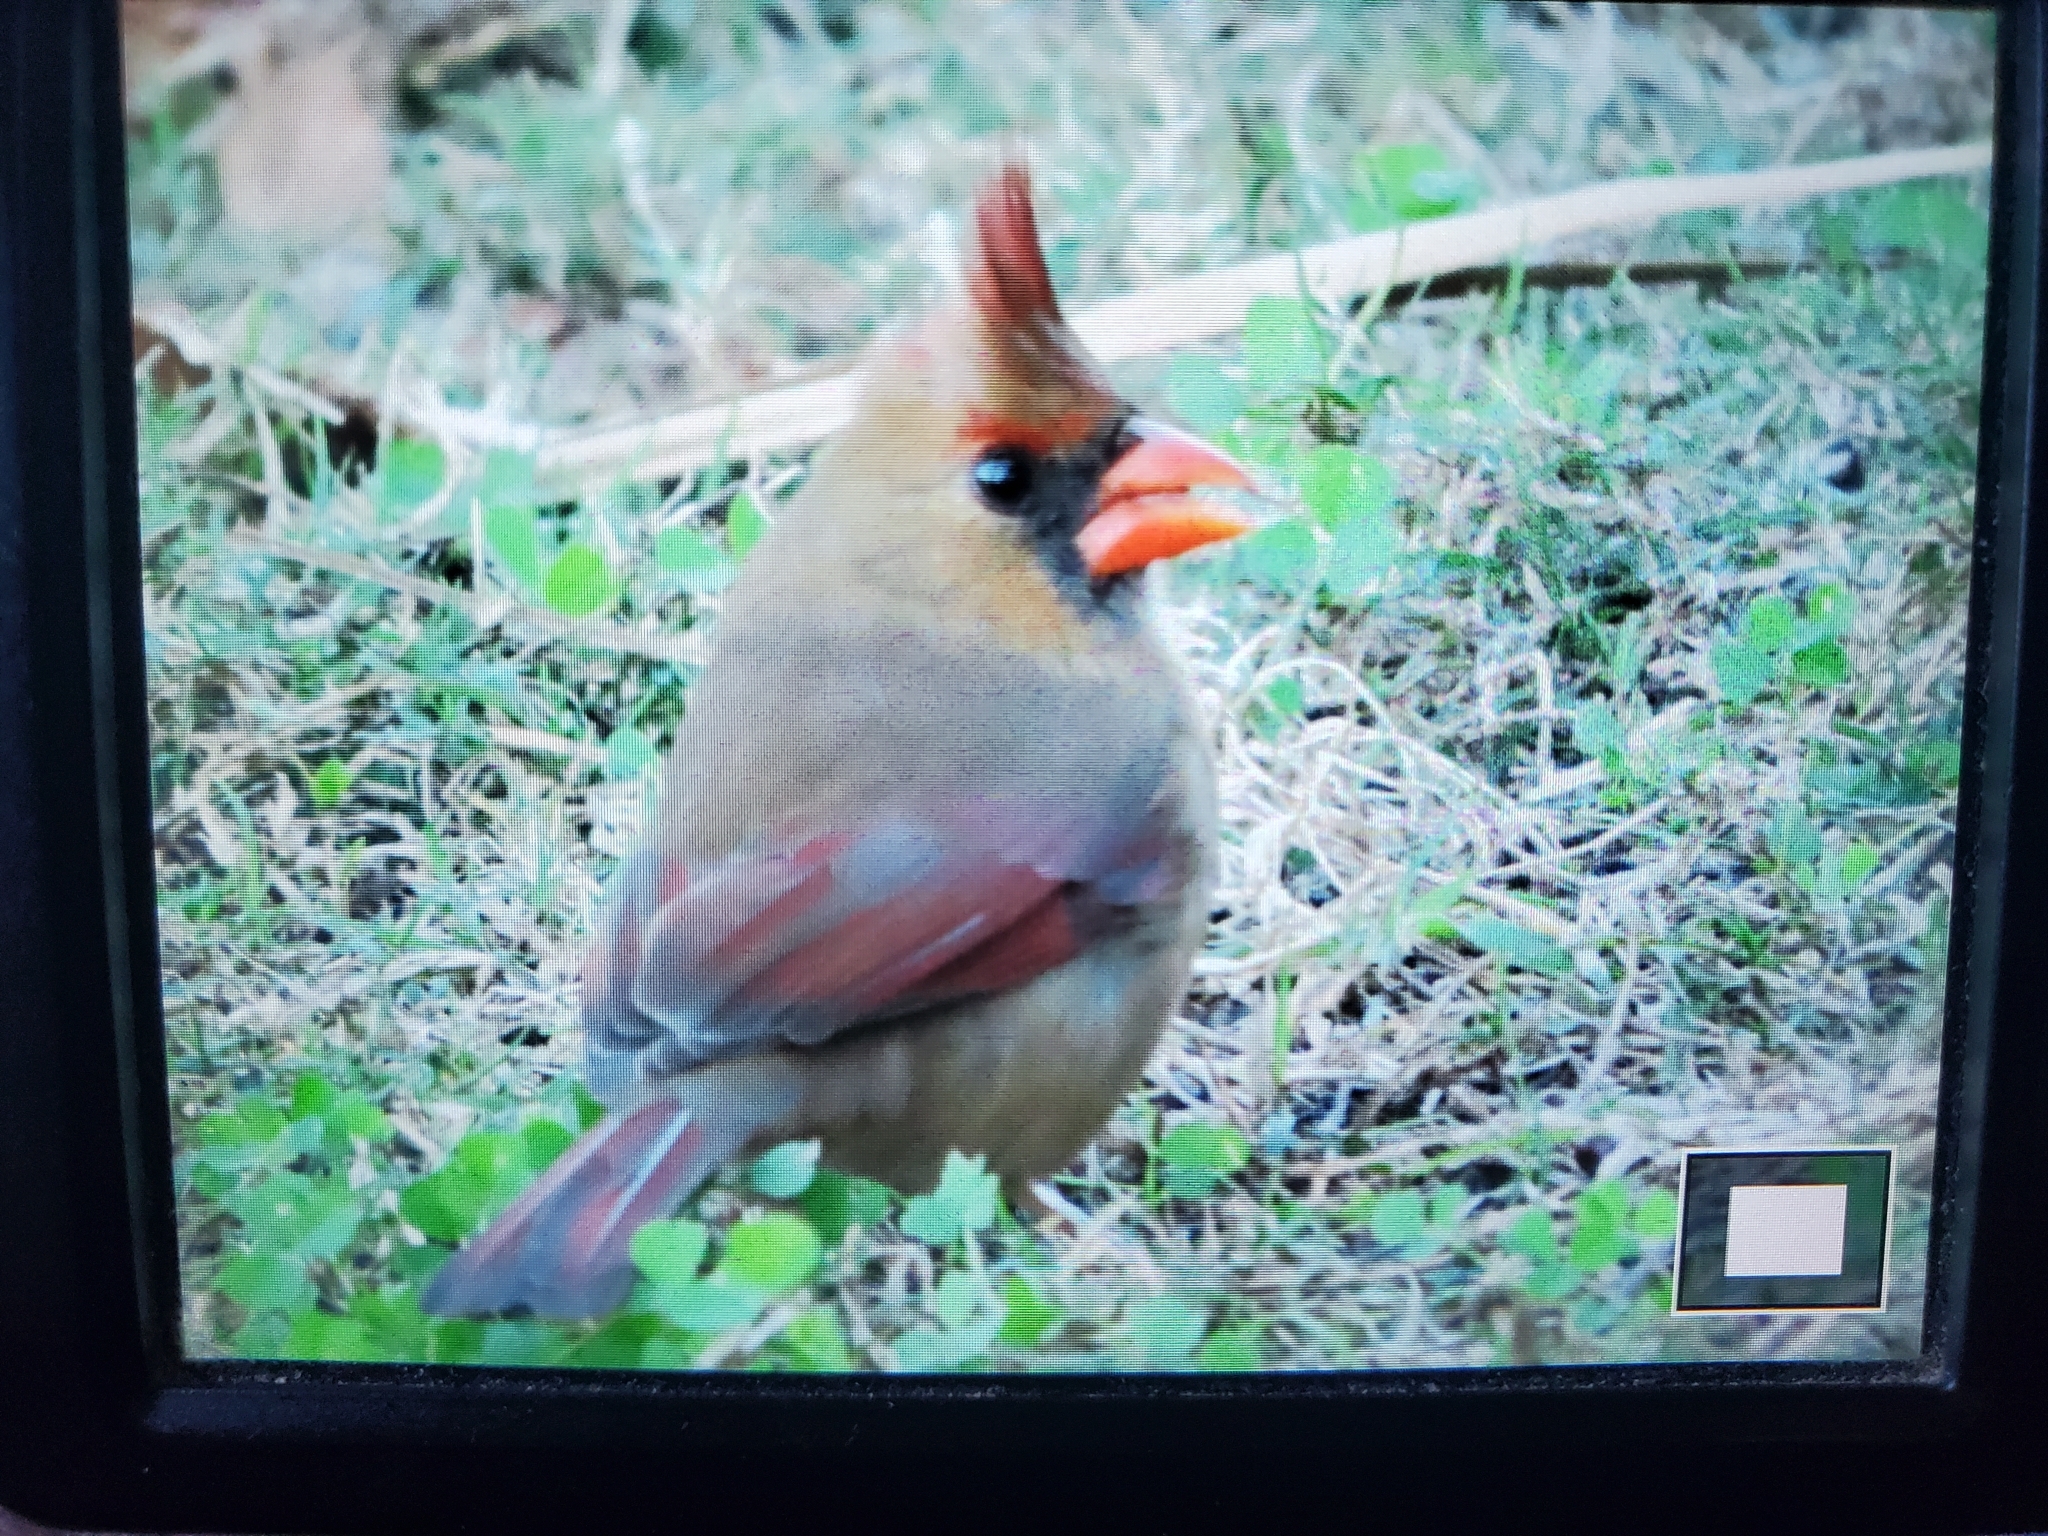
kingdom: Animalia
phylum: Chordata
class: Aves
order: Passeriformes
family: Cardinalidae
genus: Cardinalis
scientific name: Cardinalis cardinalis
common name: Northern cardinal
